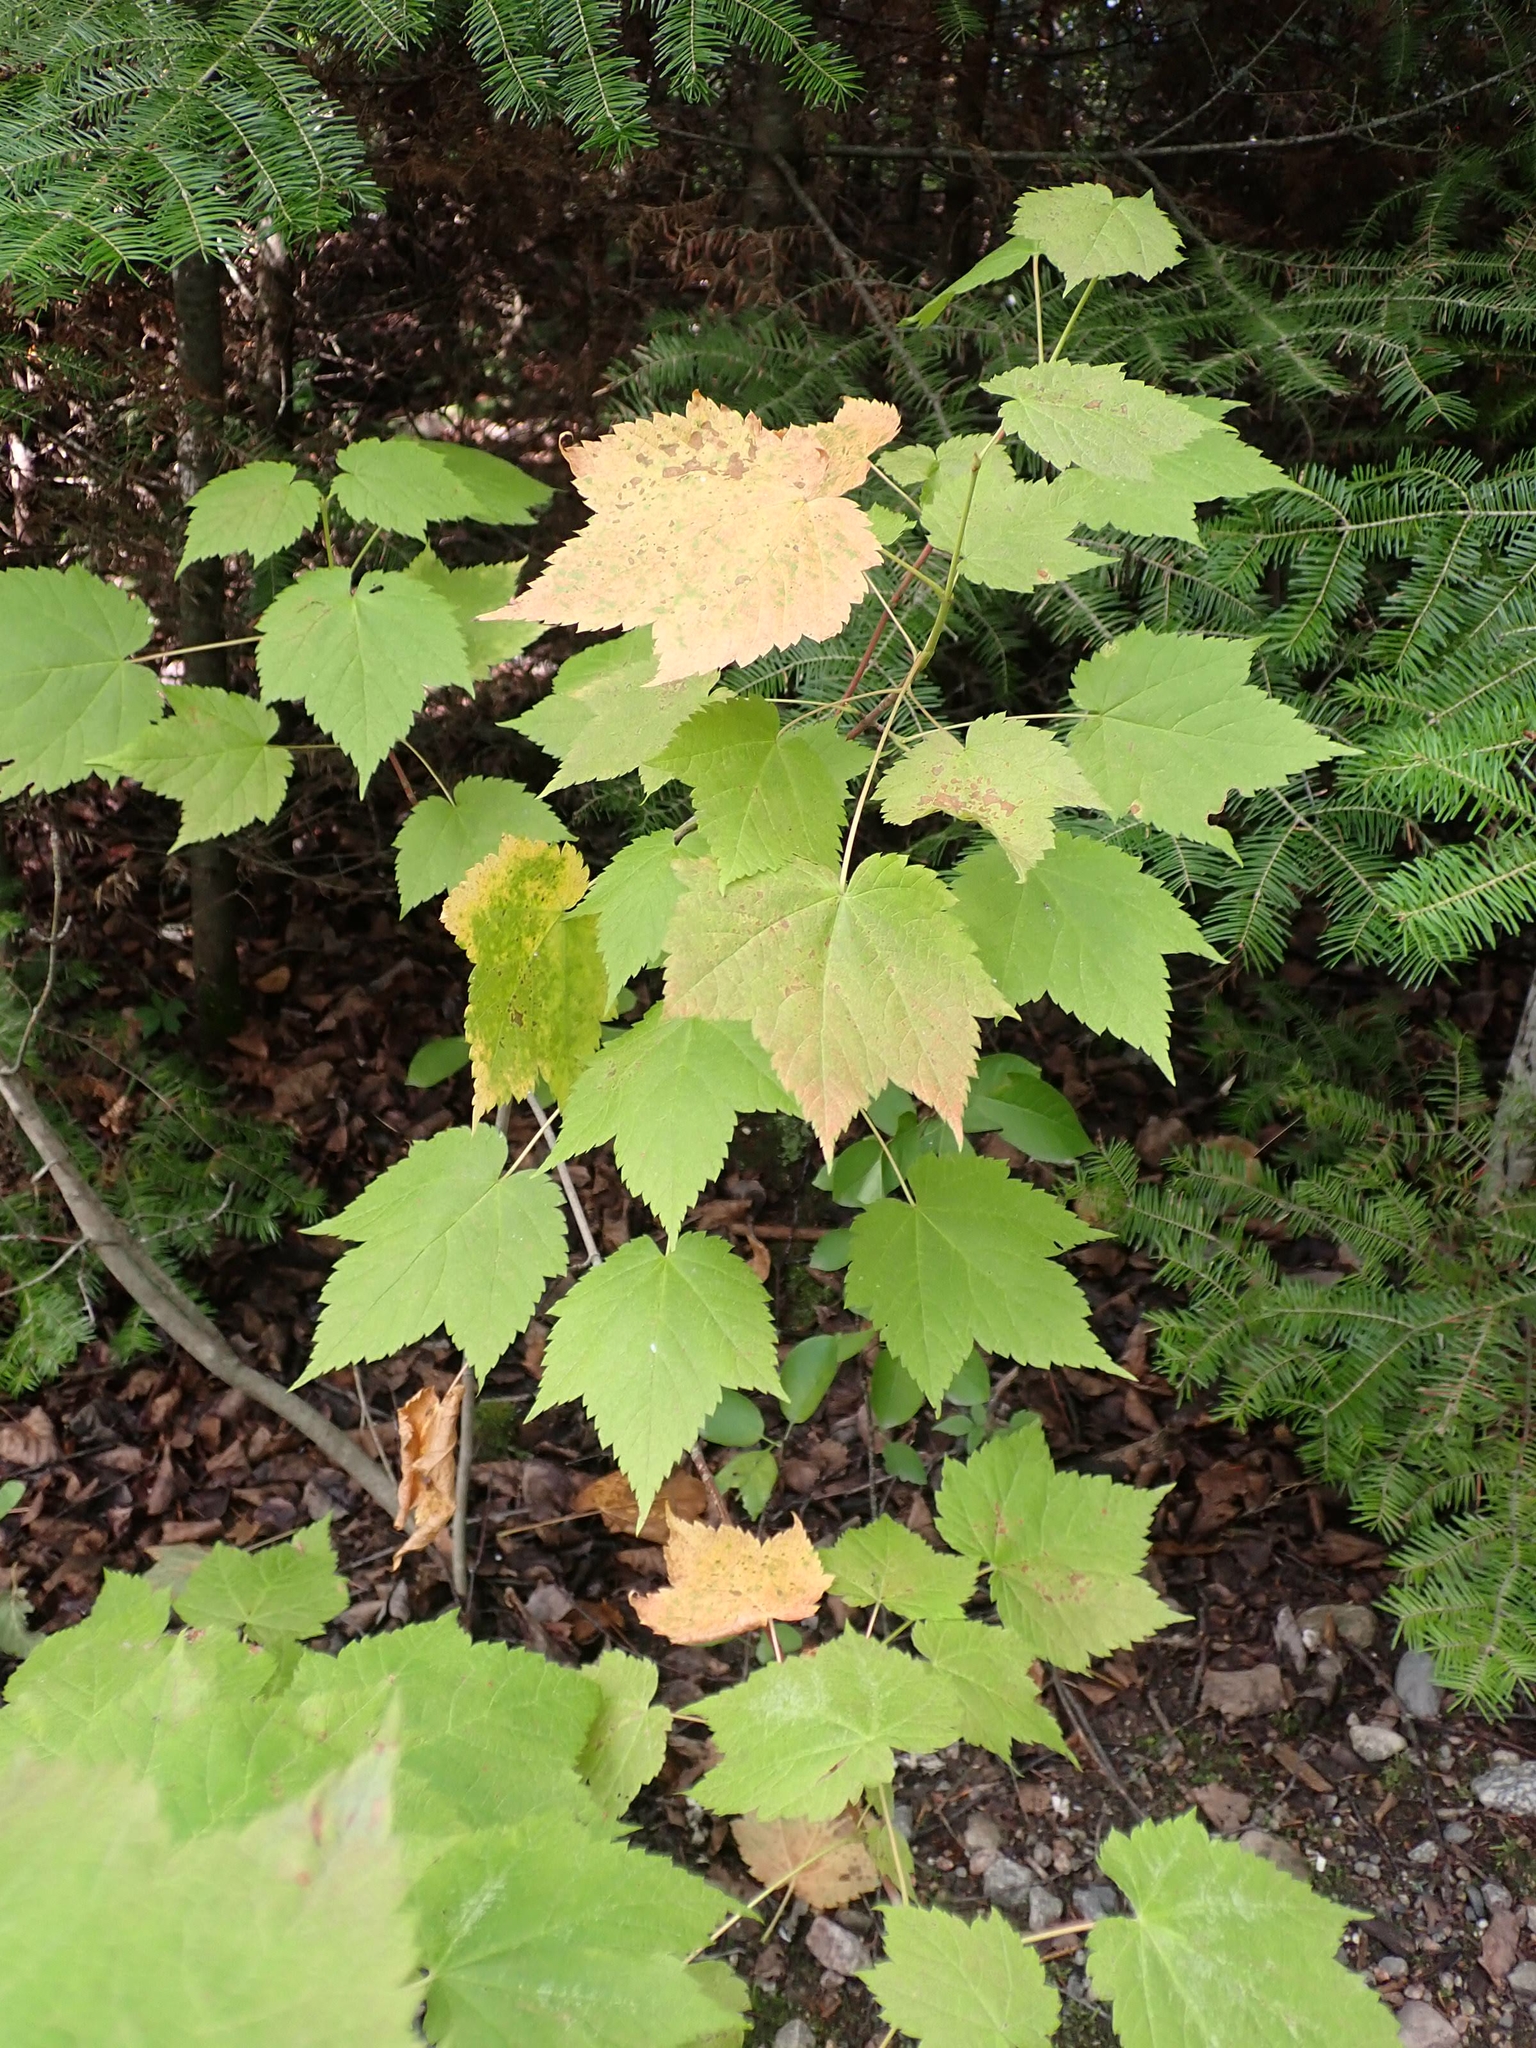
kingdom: Plantae
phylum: Tracheophyta
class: Magnoliopsida
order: Sapindales
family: Sapindaceae
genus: Acer
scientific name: Acer spicatum
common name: Mountain maple
